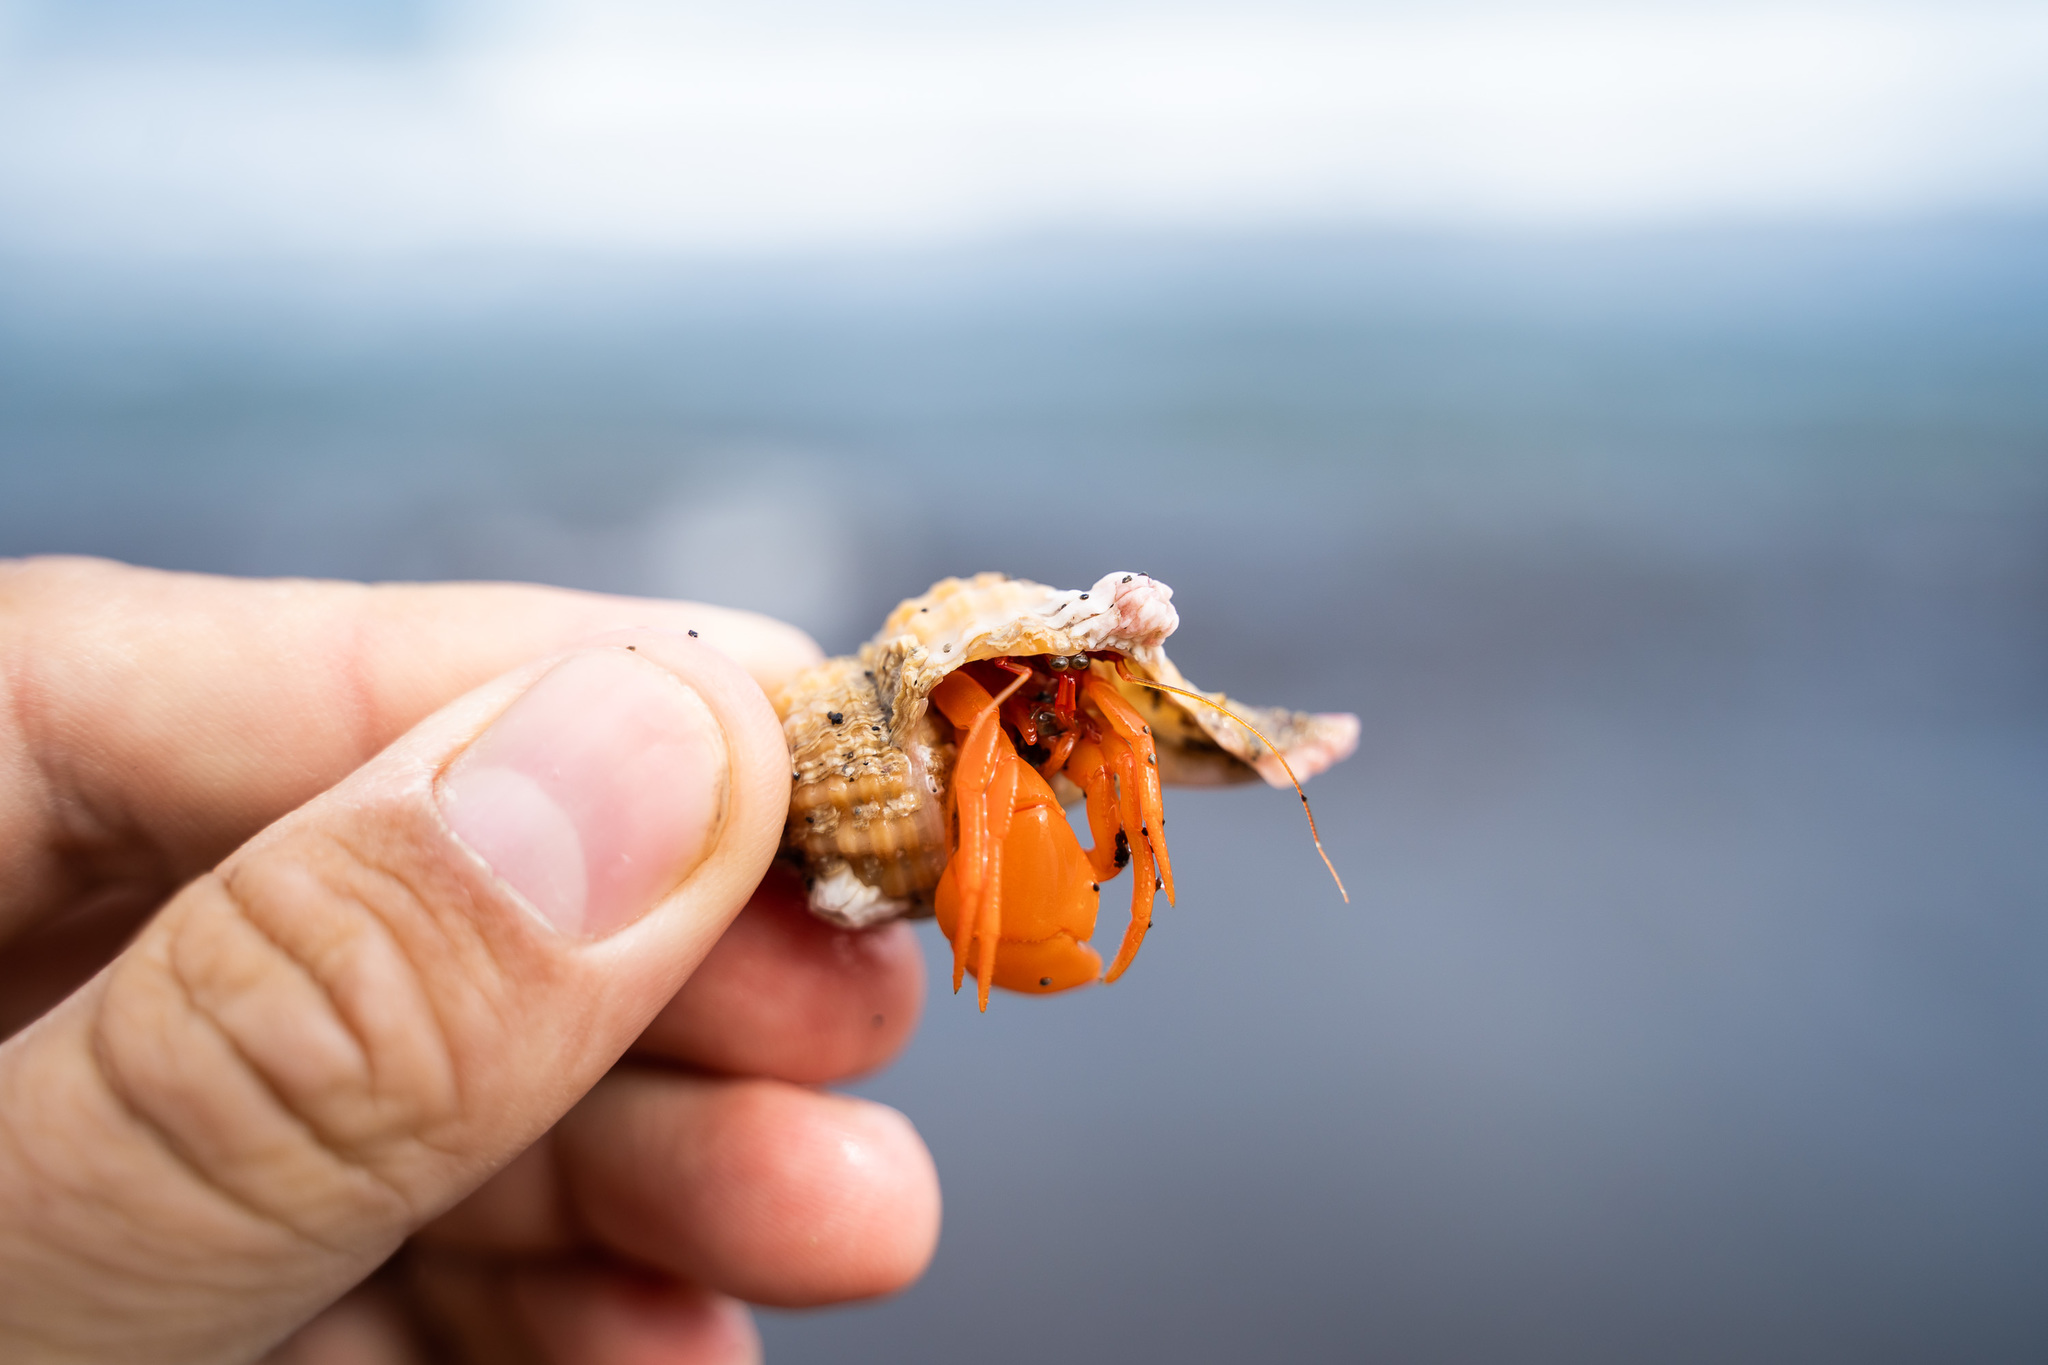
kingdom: Animalia
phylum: Arthropoda
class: Malacostraca
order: Decapoda
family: Paguridae
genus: Elassochirus
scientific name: Elassochirus gilli
